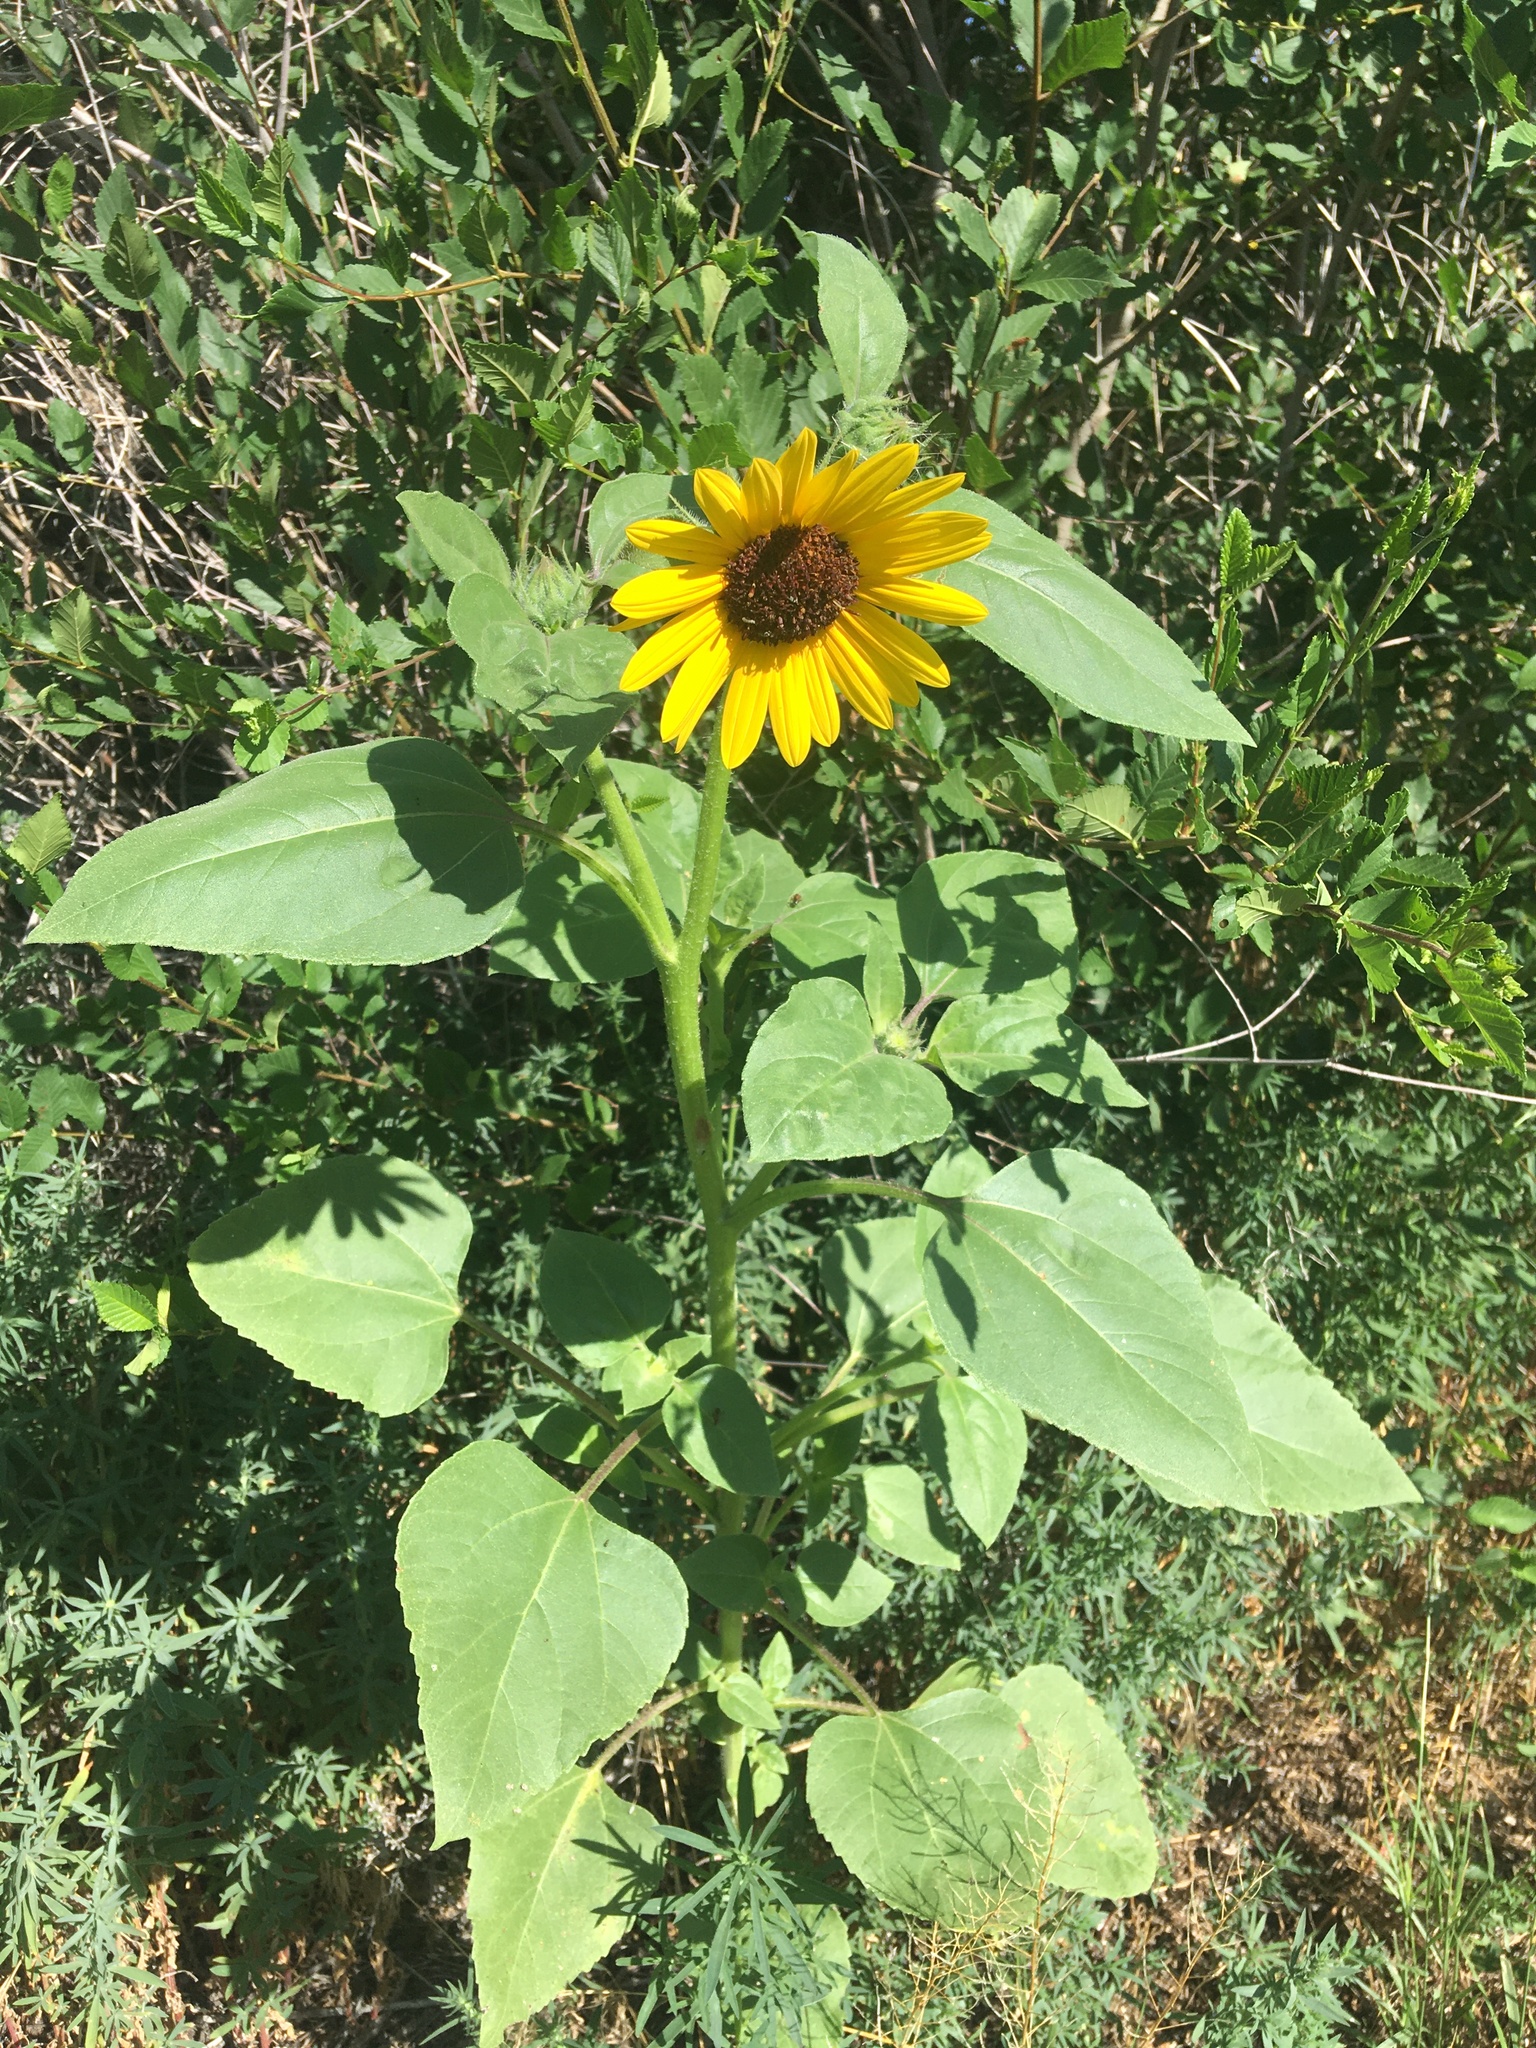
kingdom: Plantae
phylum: Tracheophyta
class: Magnoliopsida
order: Asterales
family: Asteraceae
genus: Helianthus
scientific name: Helianthus annuus
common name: Sunflower
